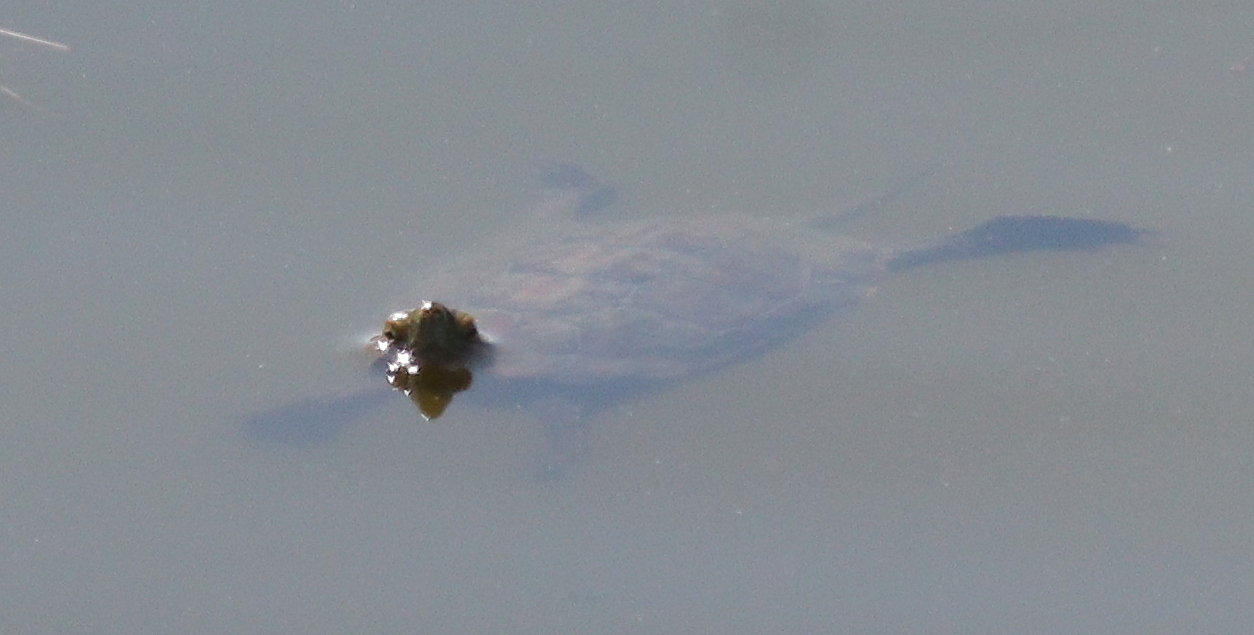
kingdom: Animalia
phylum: Chordata
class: Testudines
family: Geoemydidae
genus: Mauremys
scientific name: Mauremys leprosa
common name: Mediterranean pond turtle
